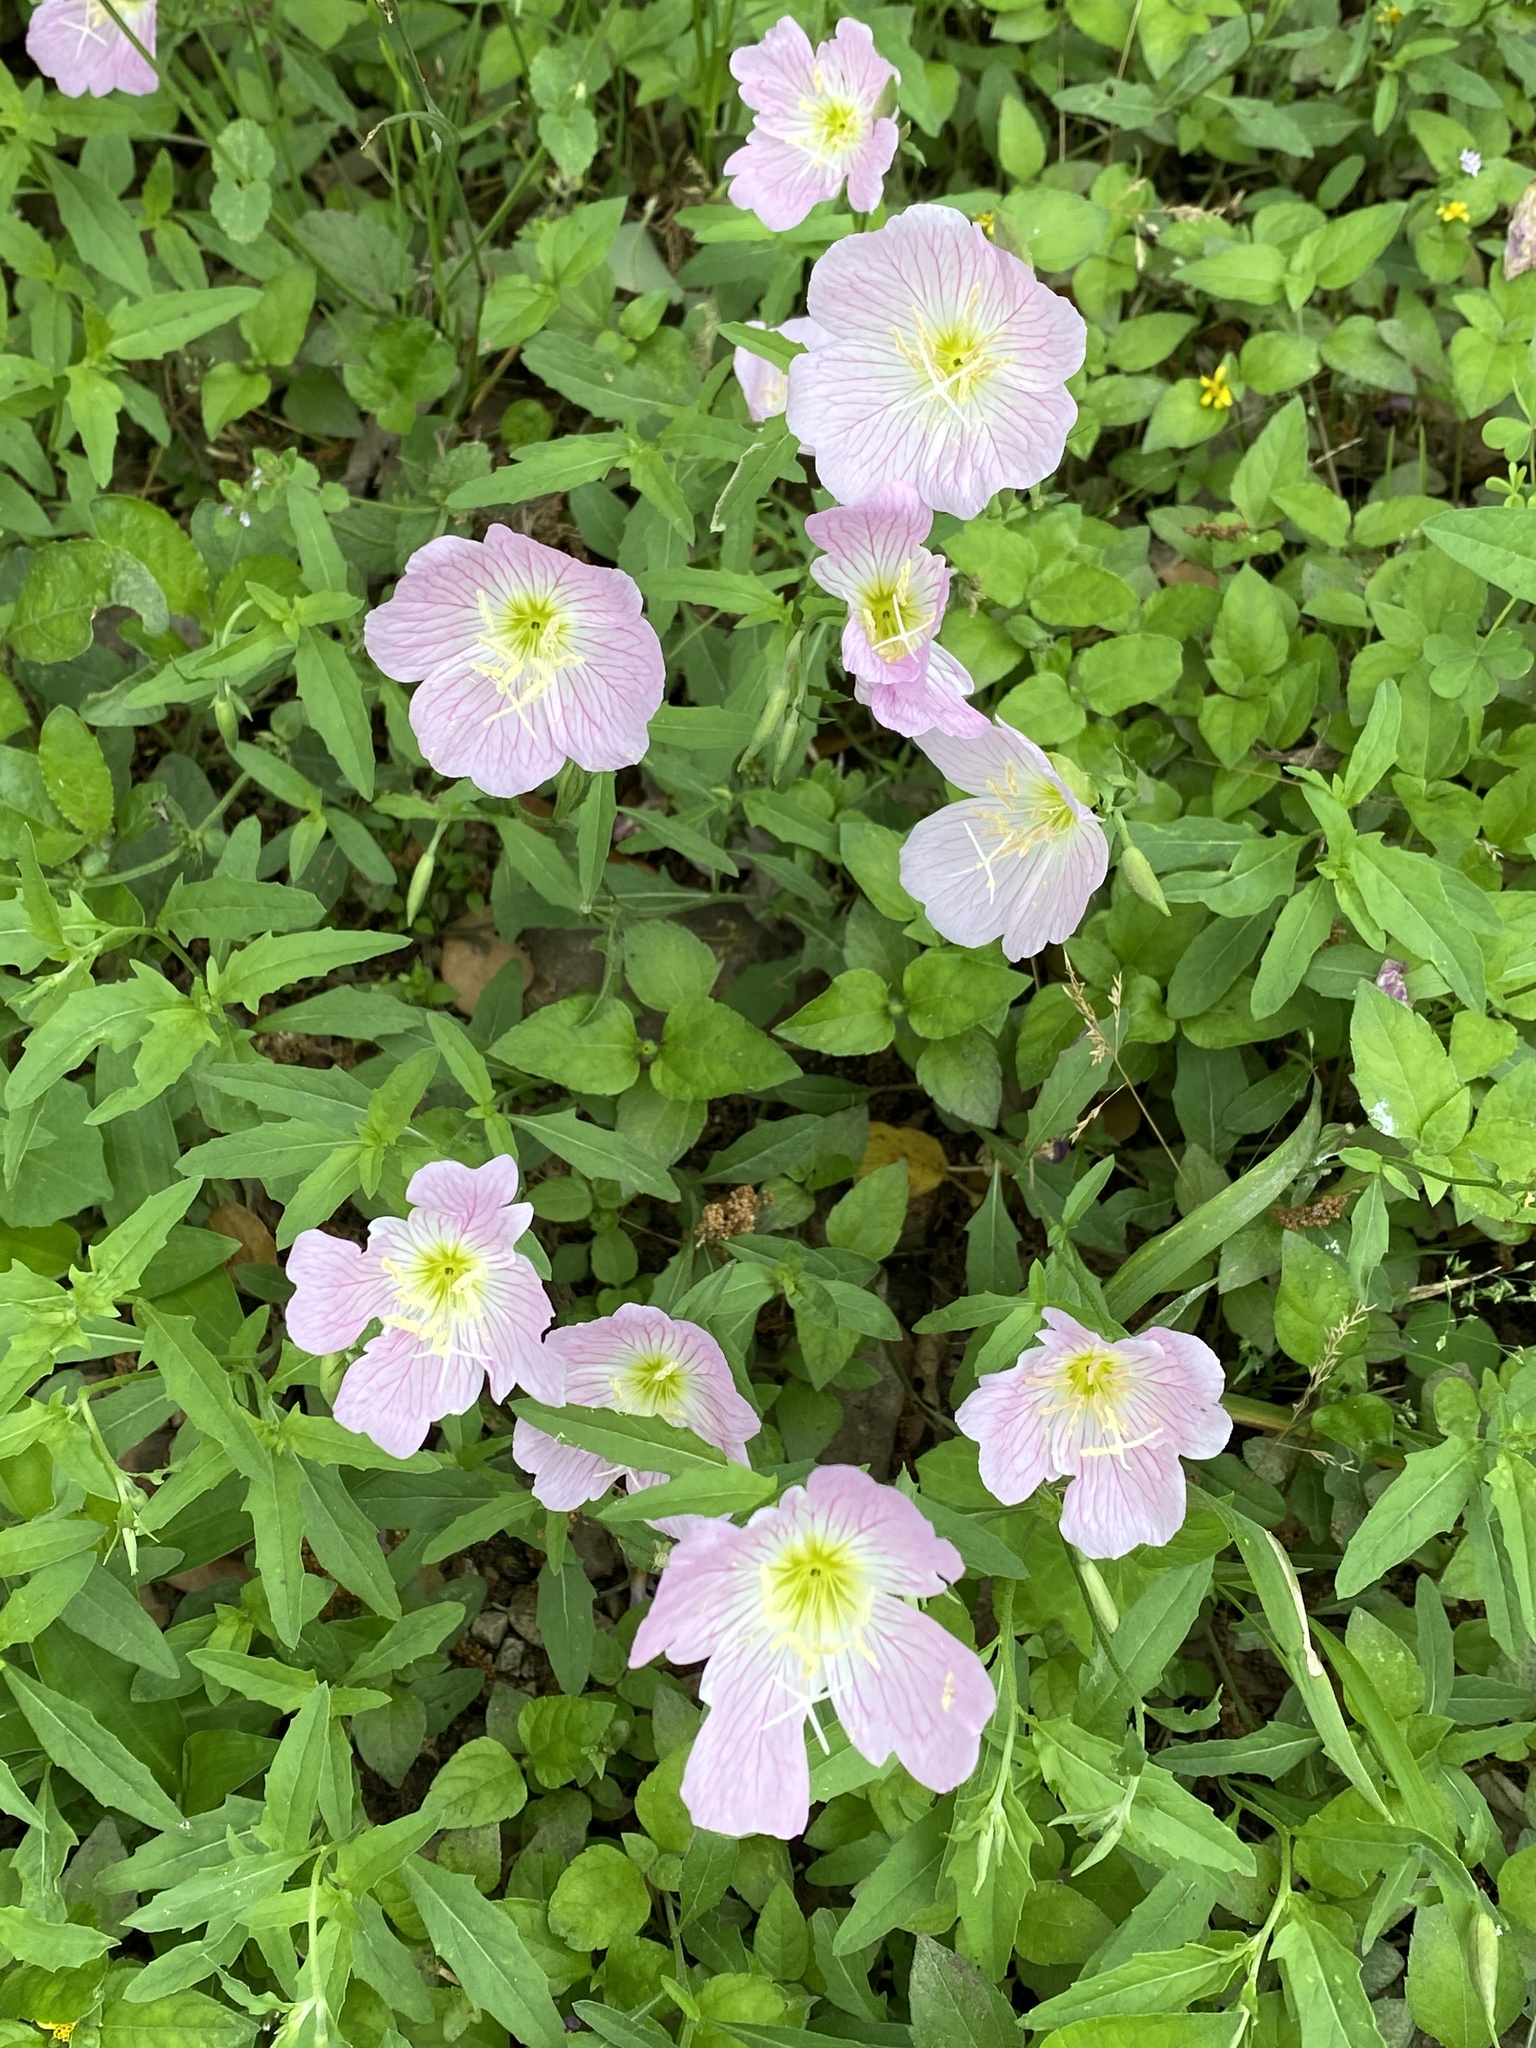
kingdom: Plantae
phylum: Tracheophyta
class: Magnoliopsida
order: Myrtales
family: Onagraceae
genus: Oenothera
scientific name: Oenothera speciosa
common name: White evening-primrose
